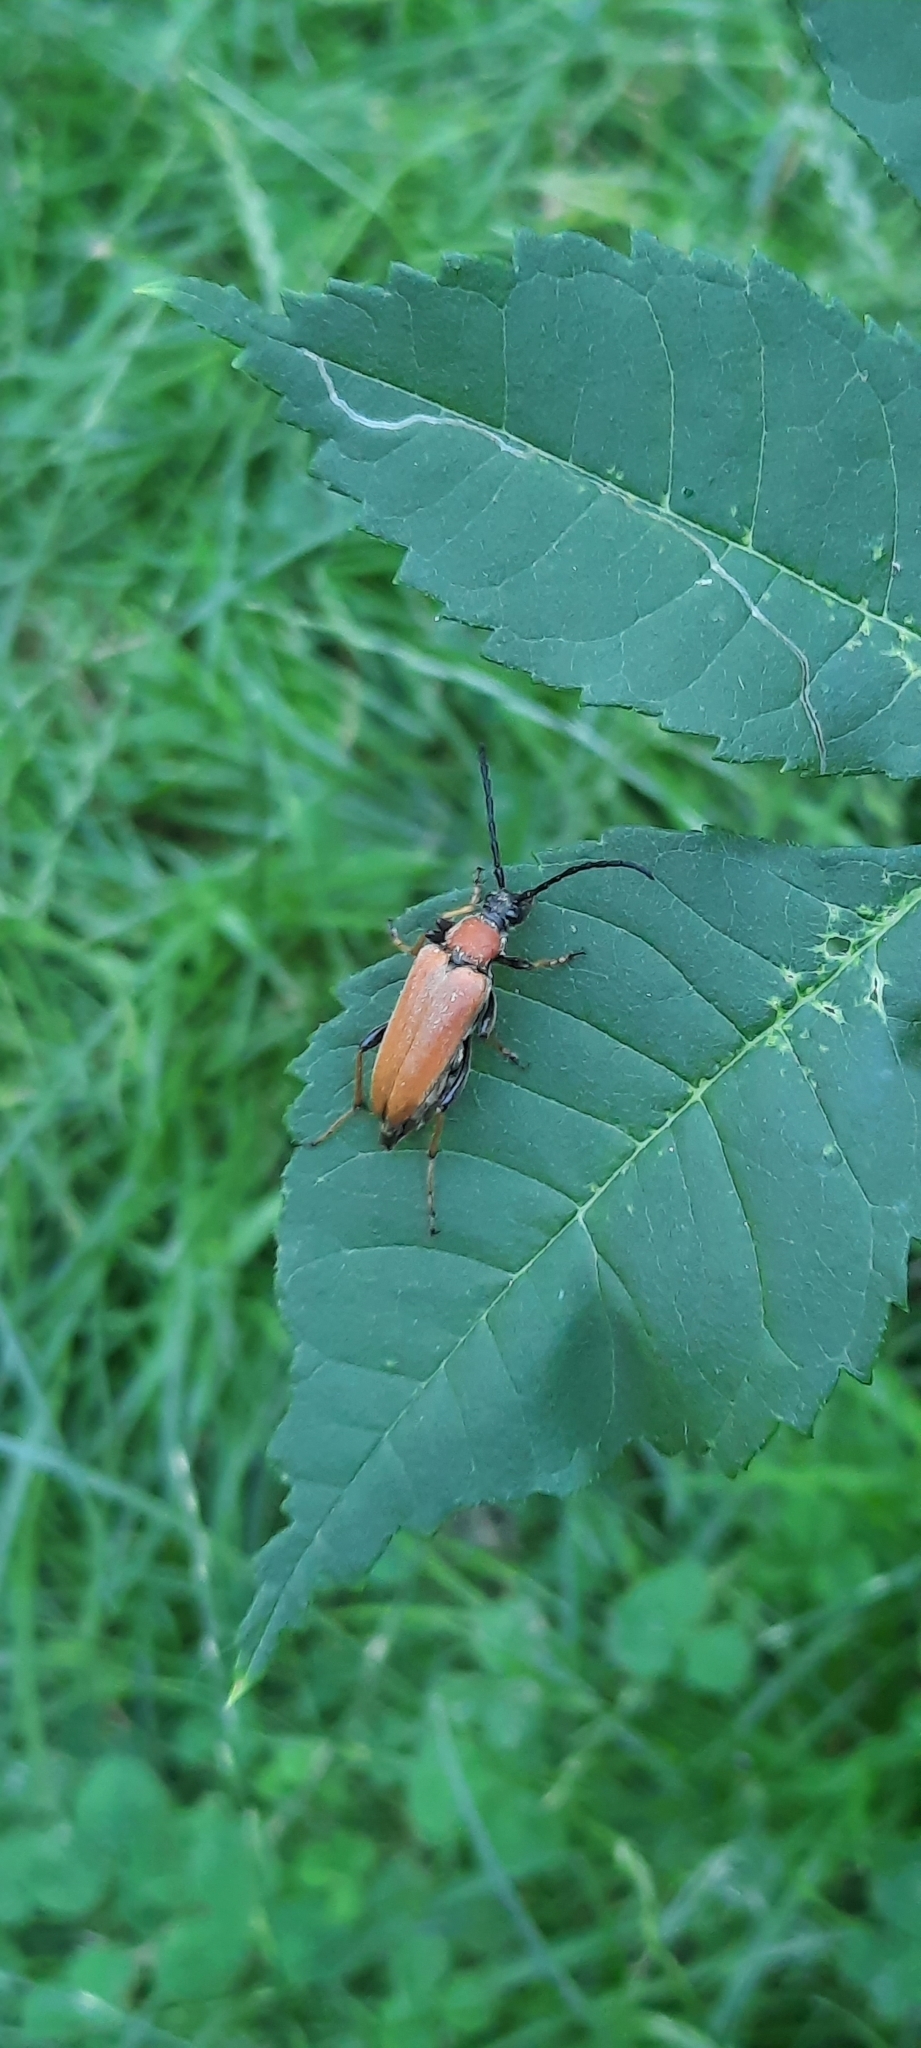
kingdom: Animalia
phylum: Arthropoda
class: Insecta
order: Coleoptera
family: Cerambycidae
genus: Stictoleptura
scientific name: Stictoleptura rubra
